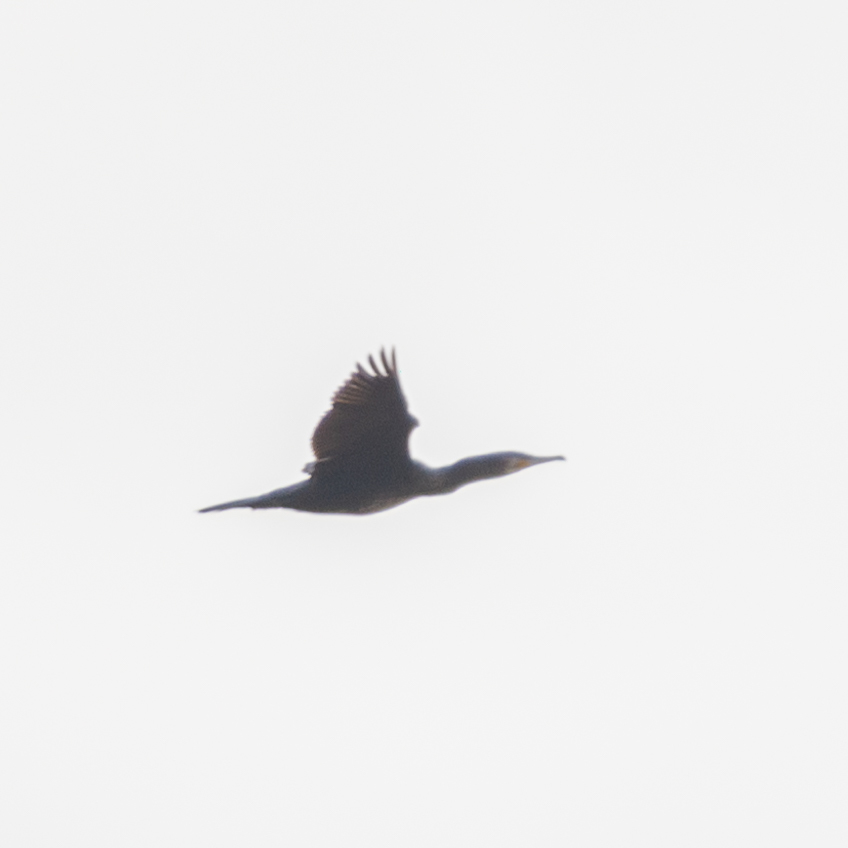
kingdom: Animalia
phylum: Chordata
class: Aves
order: Suliformes
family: Phalacrocoracidae
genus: Phalacrocorax
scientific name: Phalacrocorax carbo
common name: Great cormorant
